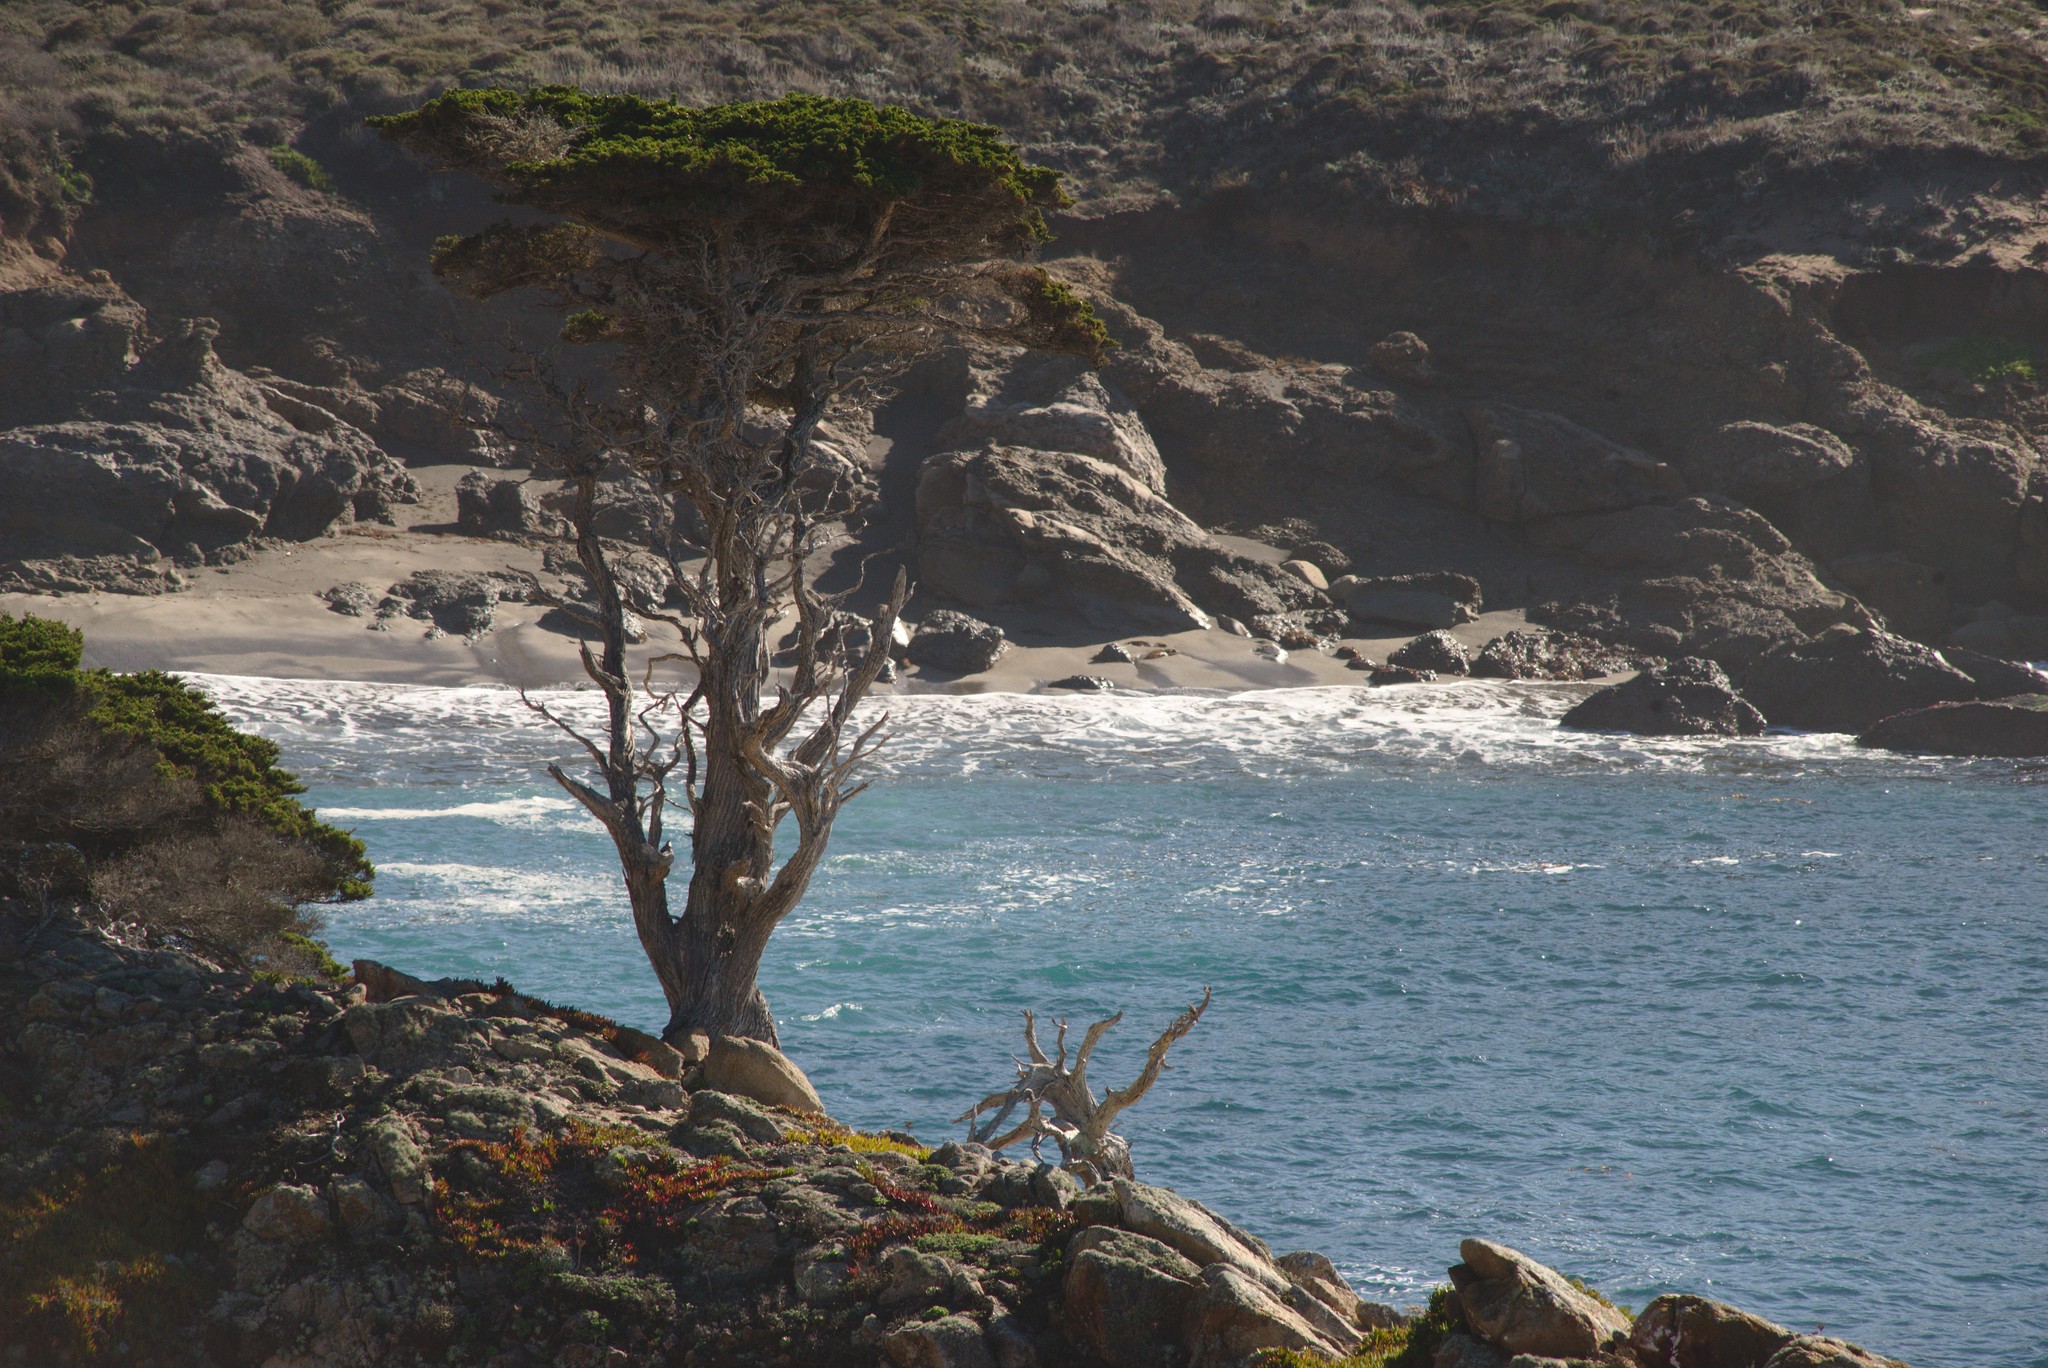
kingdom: Plantae
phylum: Tracheophyta
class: Pinopsida
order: Pinales
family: Cupressaceae
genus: Cupressus
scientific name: Cupressus macrocarpa
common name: Monterey cypress
